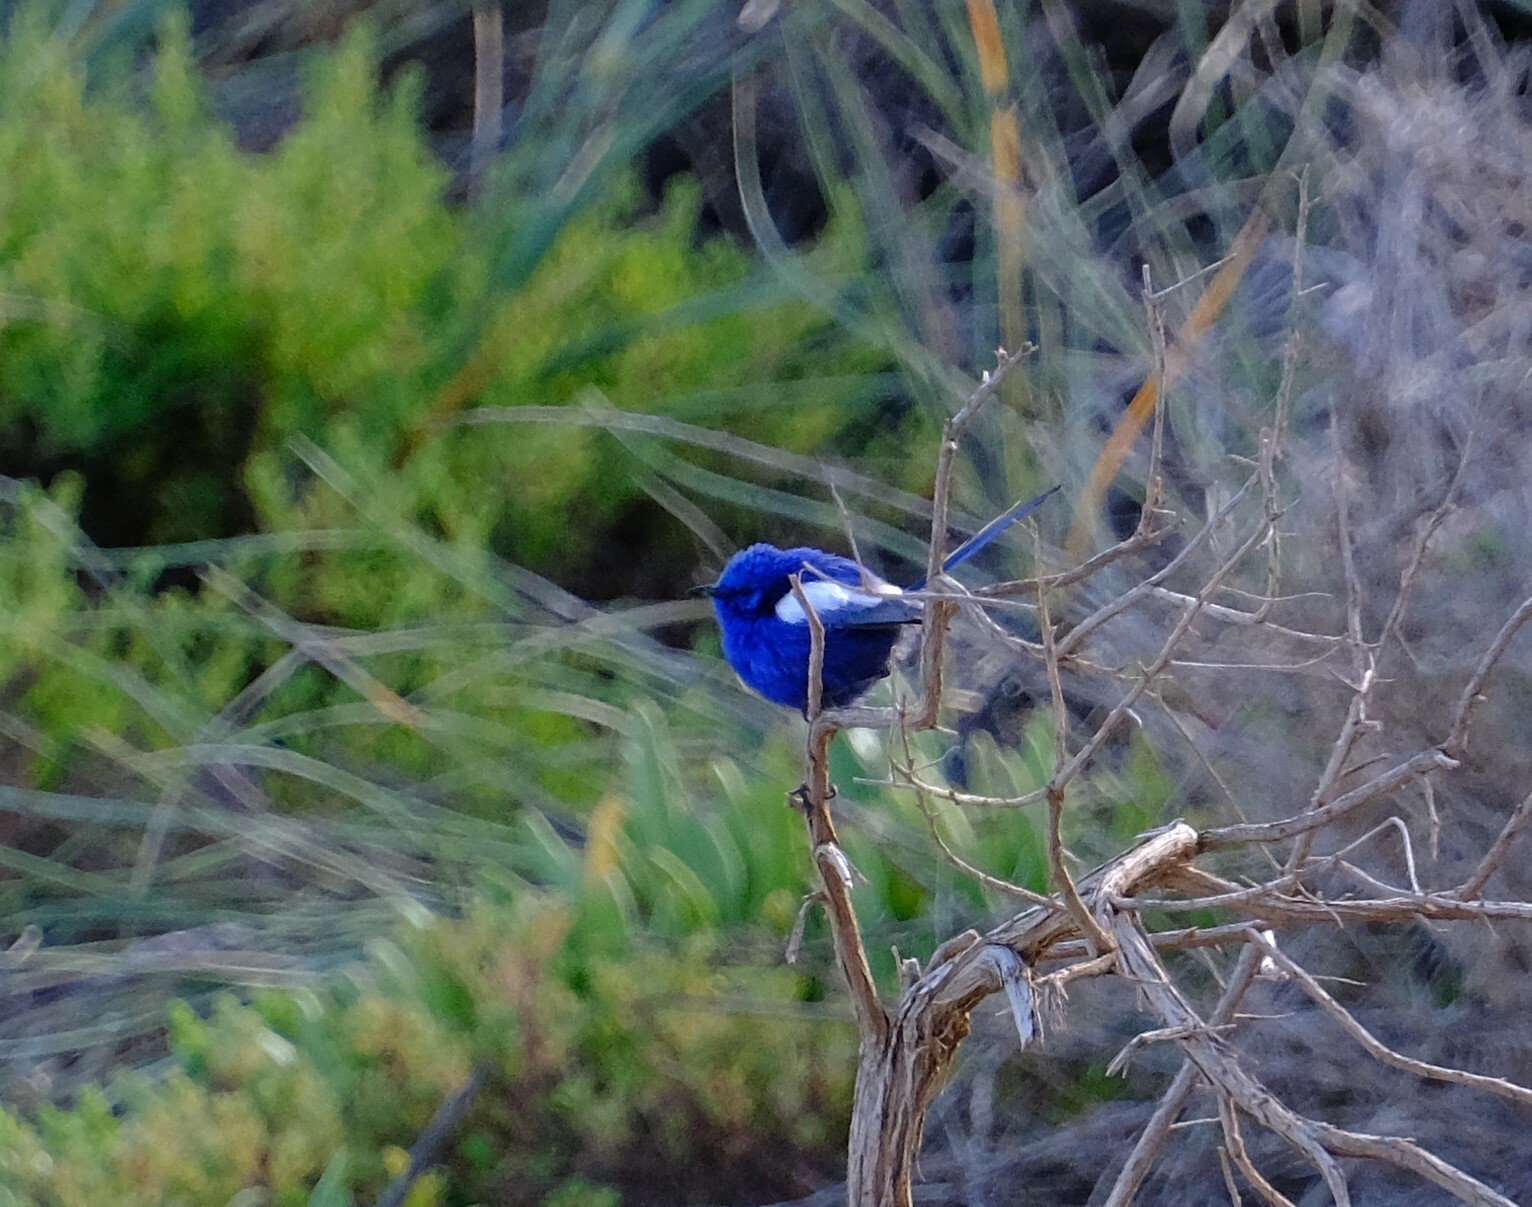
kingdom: Animalia
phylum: Chordata
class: Aves
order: Passeriformes
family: Maluridae
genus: Malurus
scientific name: Malurus leucopterus
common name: White-winged fairywren
